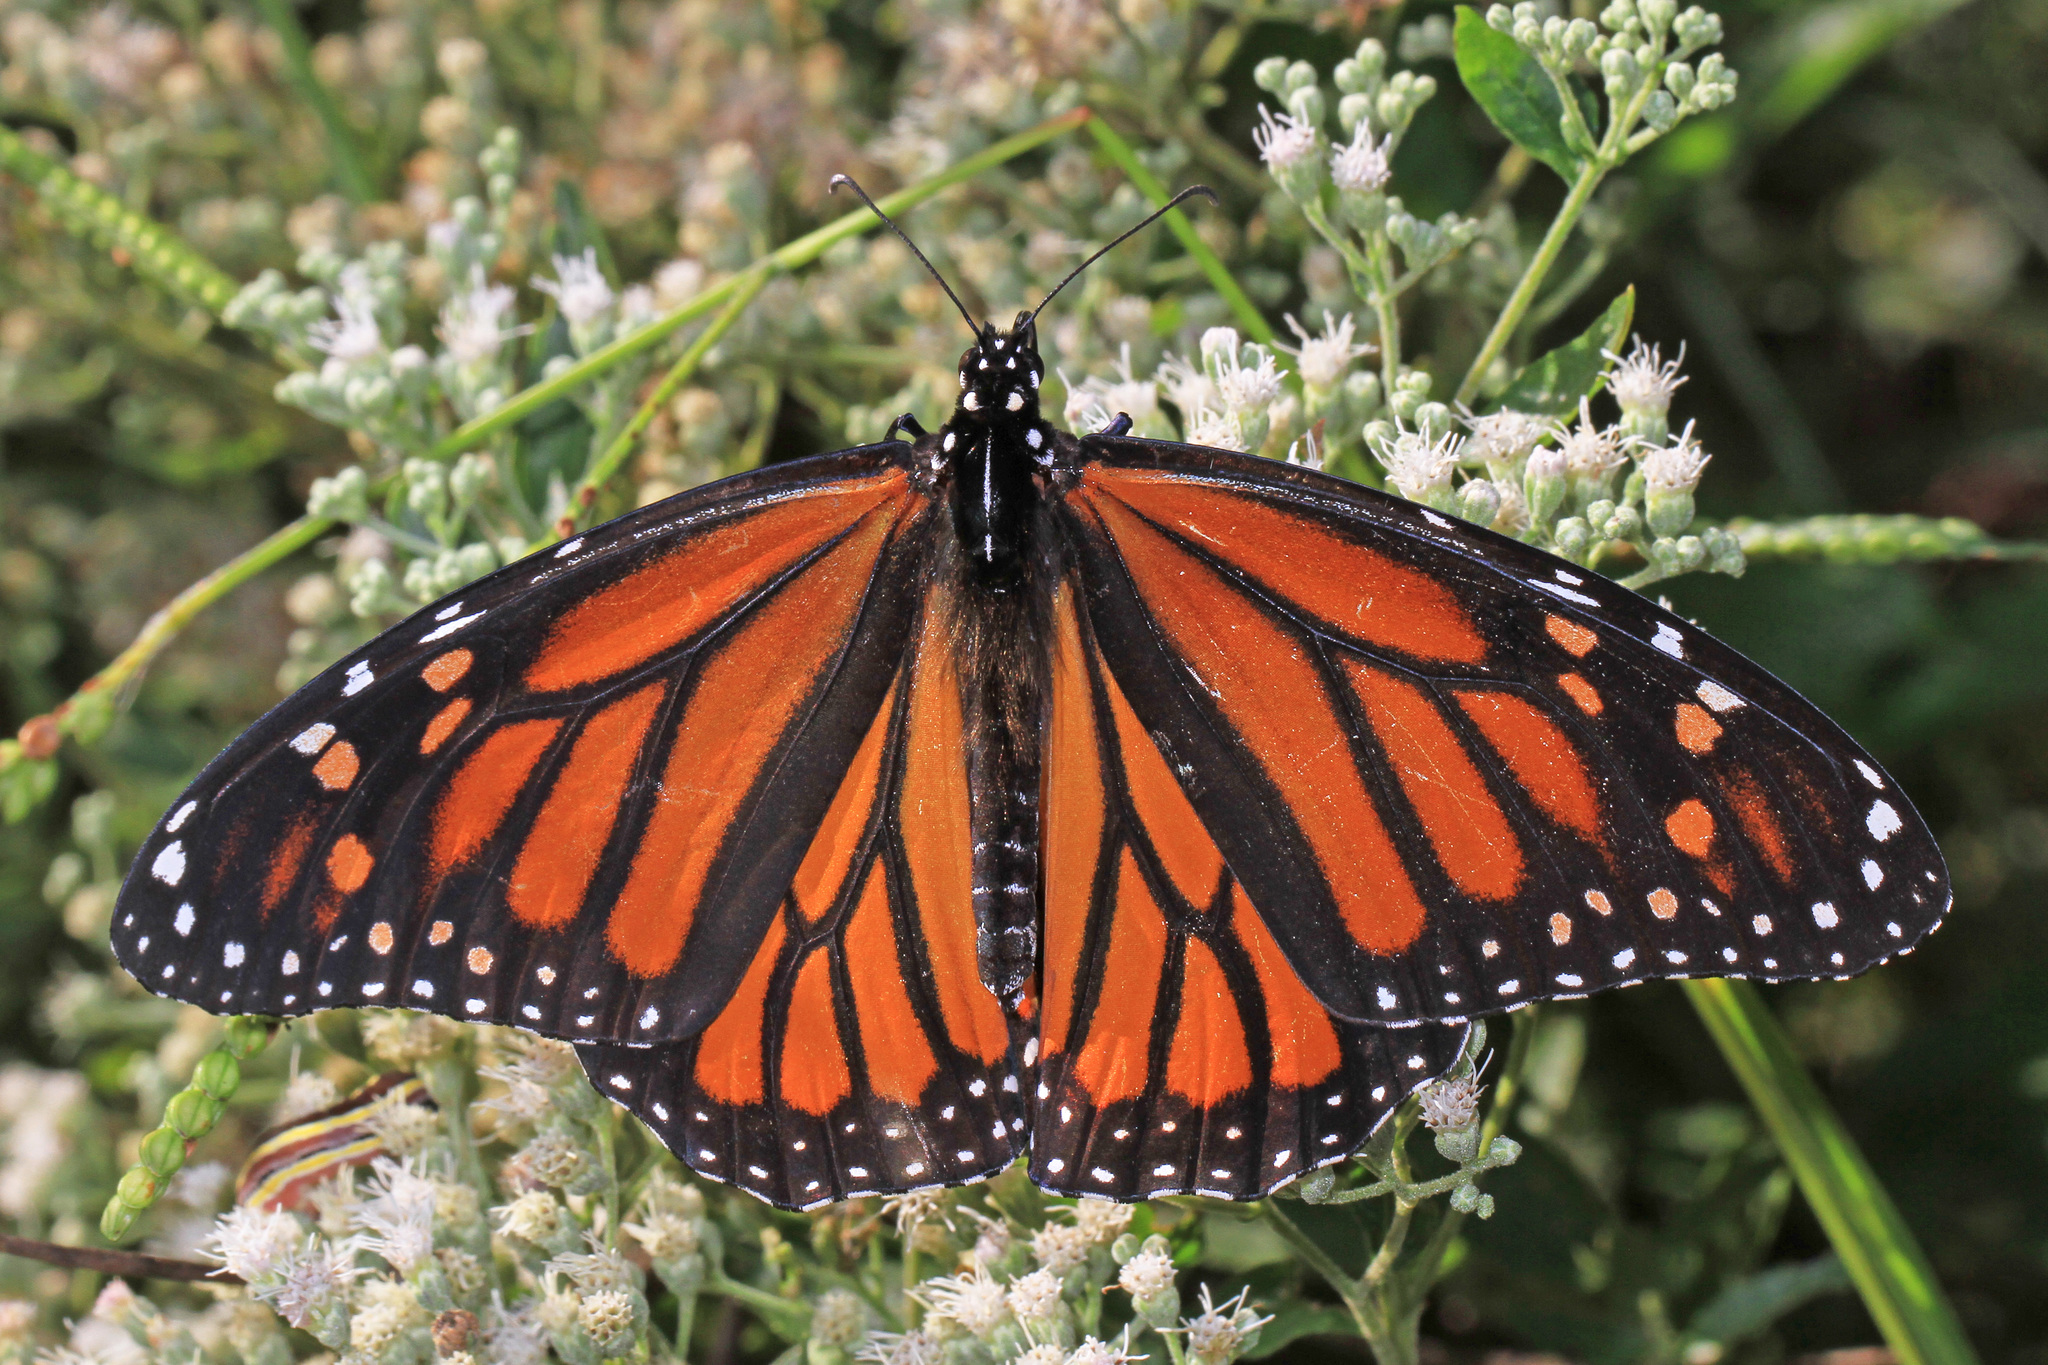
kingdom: Animalia
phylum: Arthropoda
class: Insecta
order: Lepidoptera
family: Nymphalidae
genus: Danaus
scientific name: Danaus plexippus
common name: Monarch
